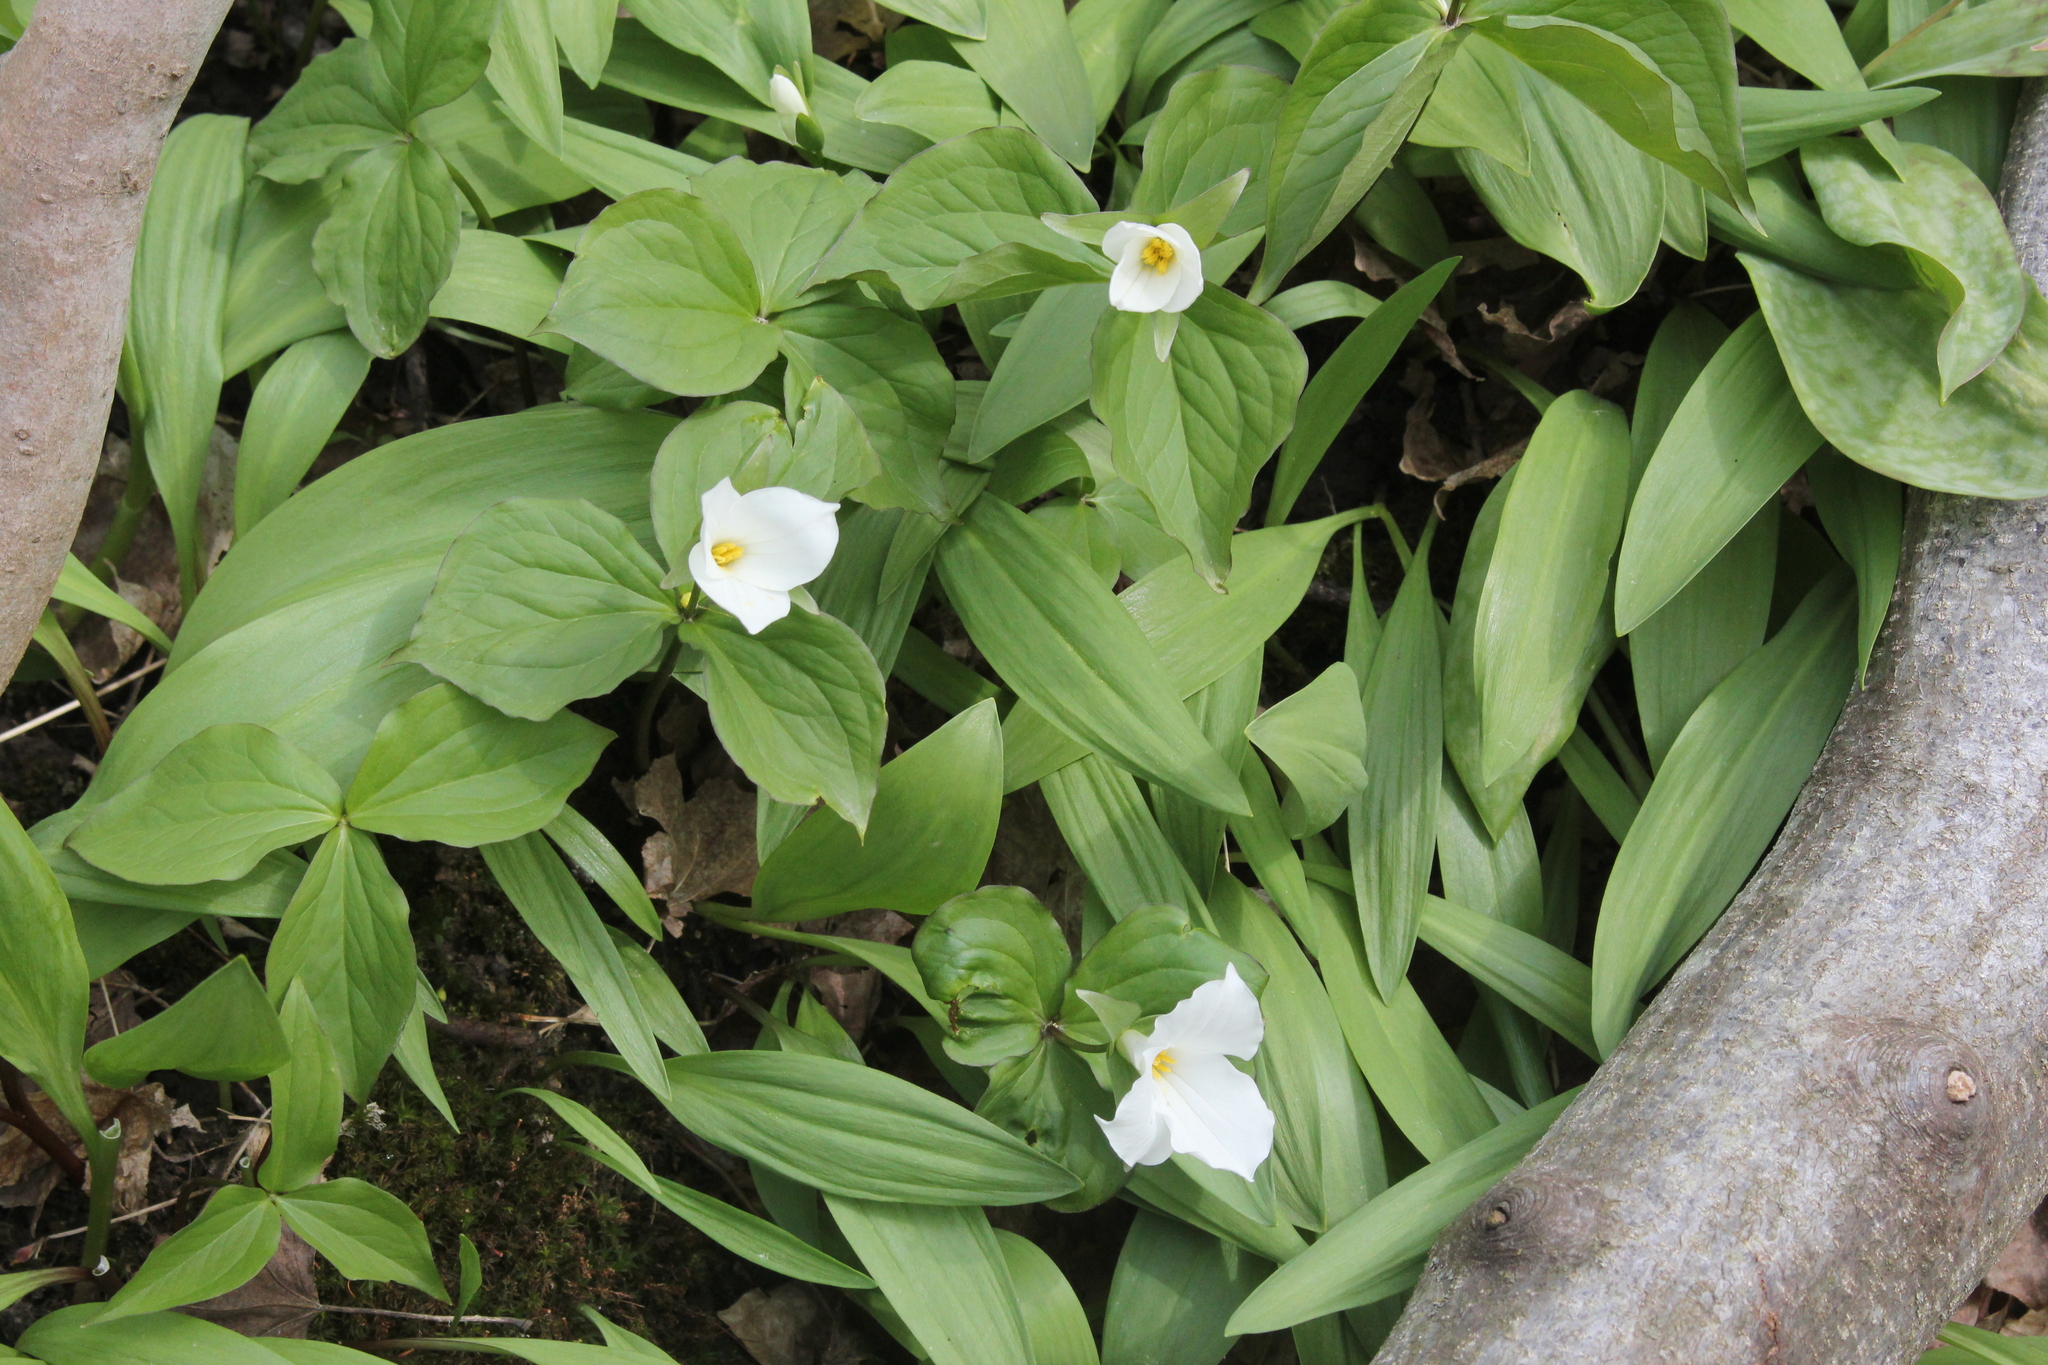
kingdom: Plantae
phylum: Tracheophyta
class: Liliopsida
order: Liliales
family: Melanthiaceae
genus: Trillium
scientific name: Trillium grandiflorum
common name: Great white trillium
